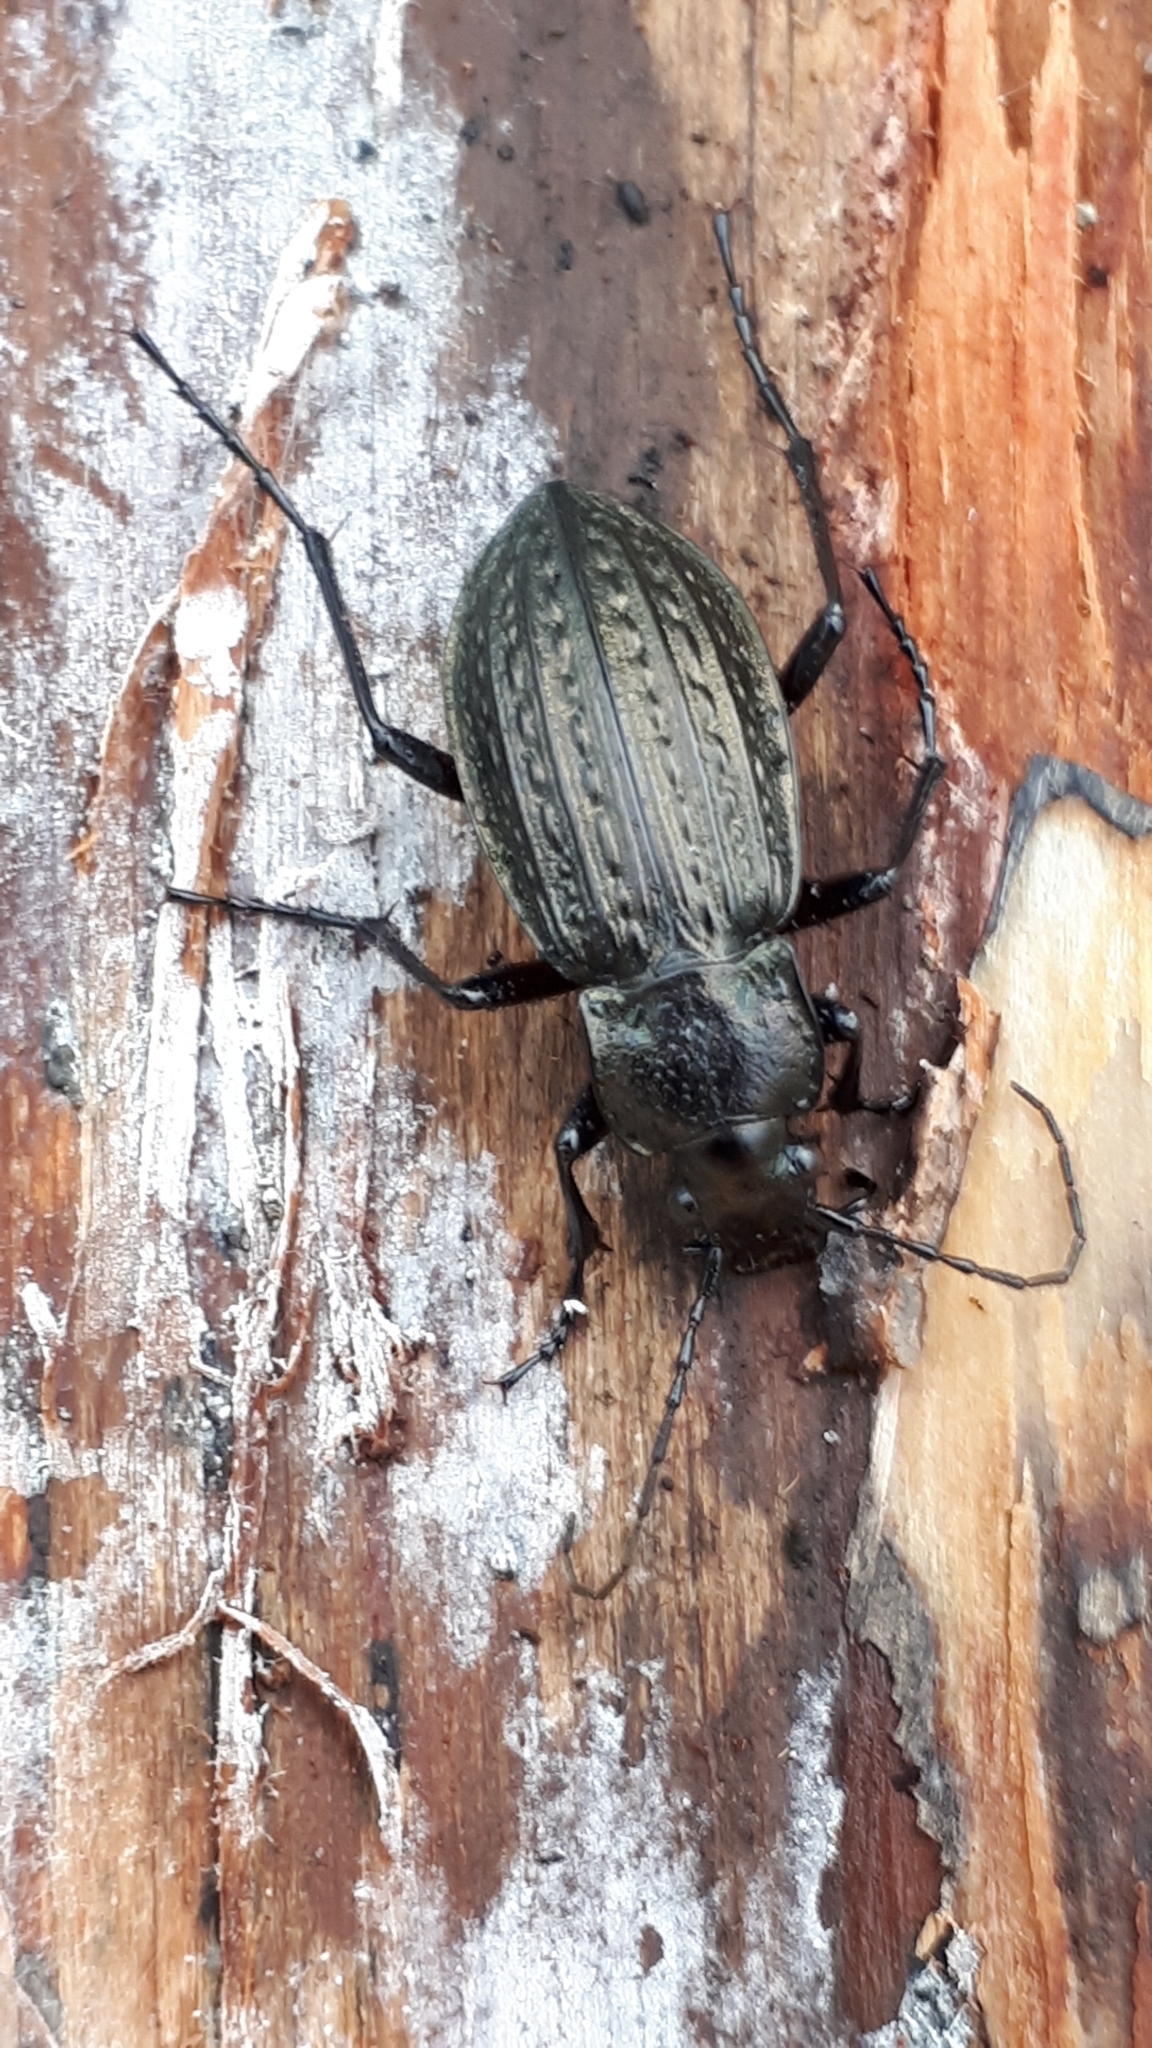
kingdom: Animalia
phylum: Arthropoda
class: Insecta
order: Coleoptera
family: Carabidae
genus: Carabus
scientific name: Carabus granulatus
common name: Granulate ground beetle
